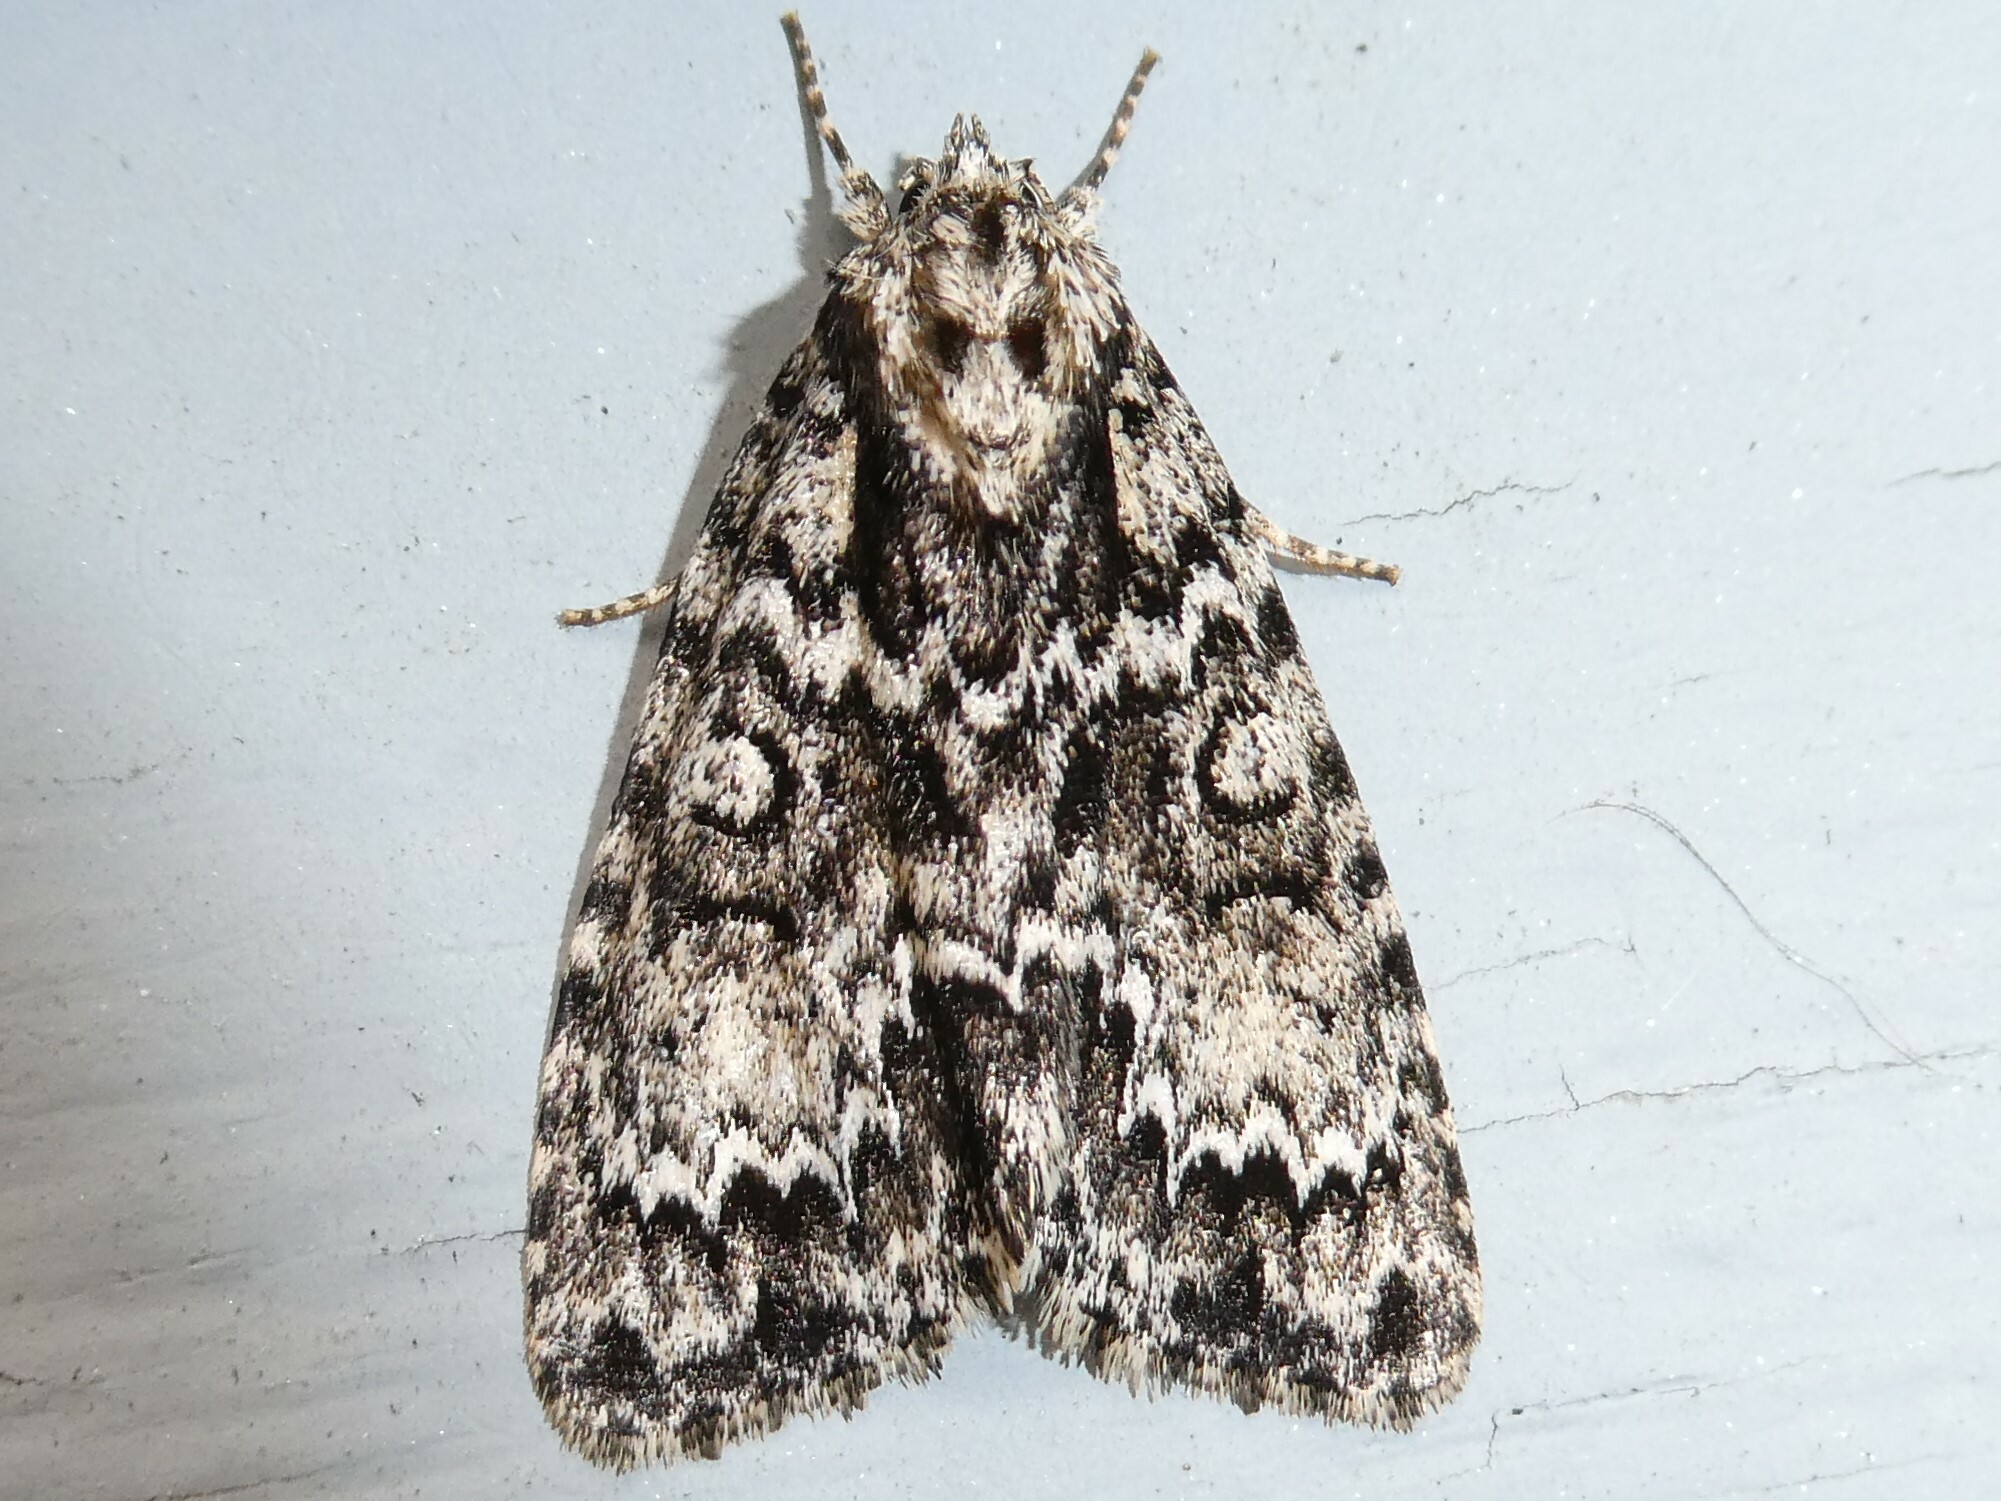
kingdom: Animalia
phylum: Arthropoda
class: Insecta
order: Lepidoptera
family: Noctuidae
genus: Acronicta
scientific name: Acronicta fragilis
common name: Fragile dagger
